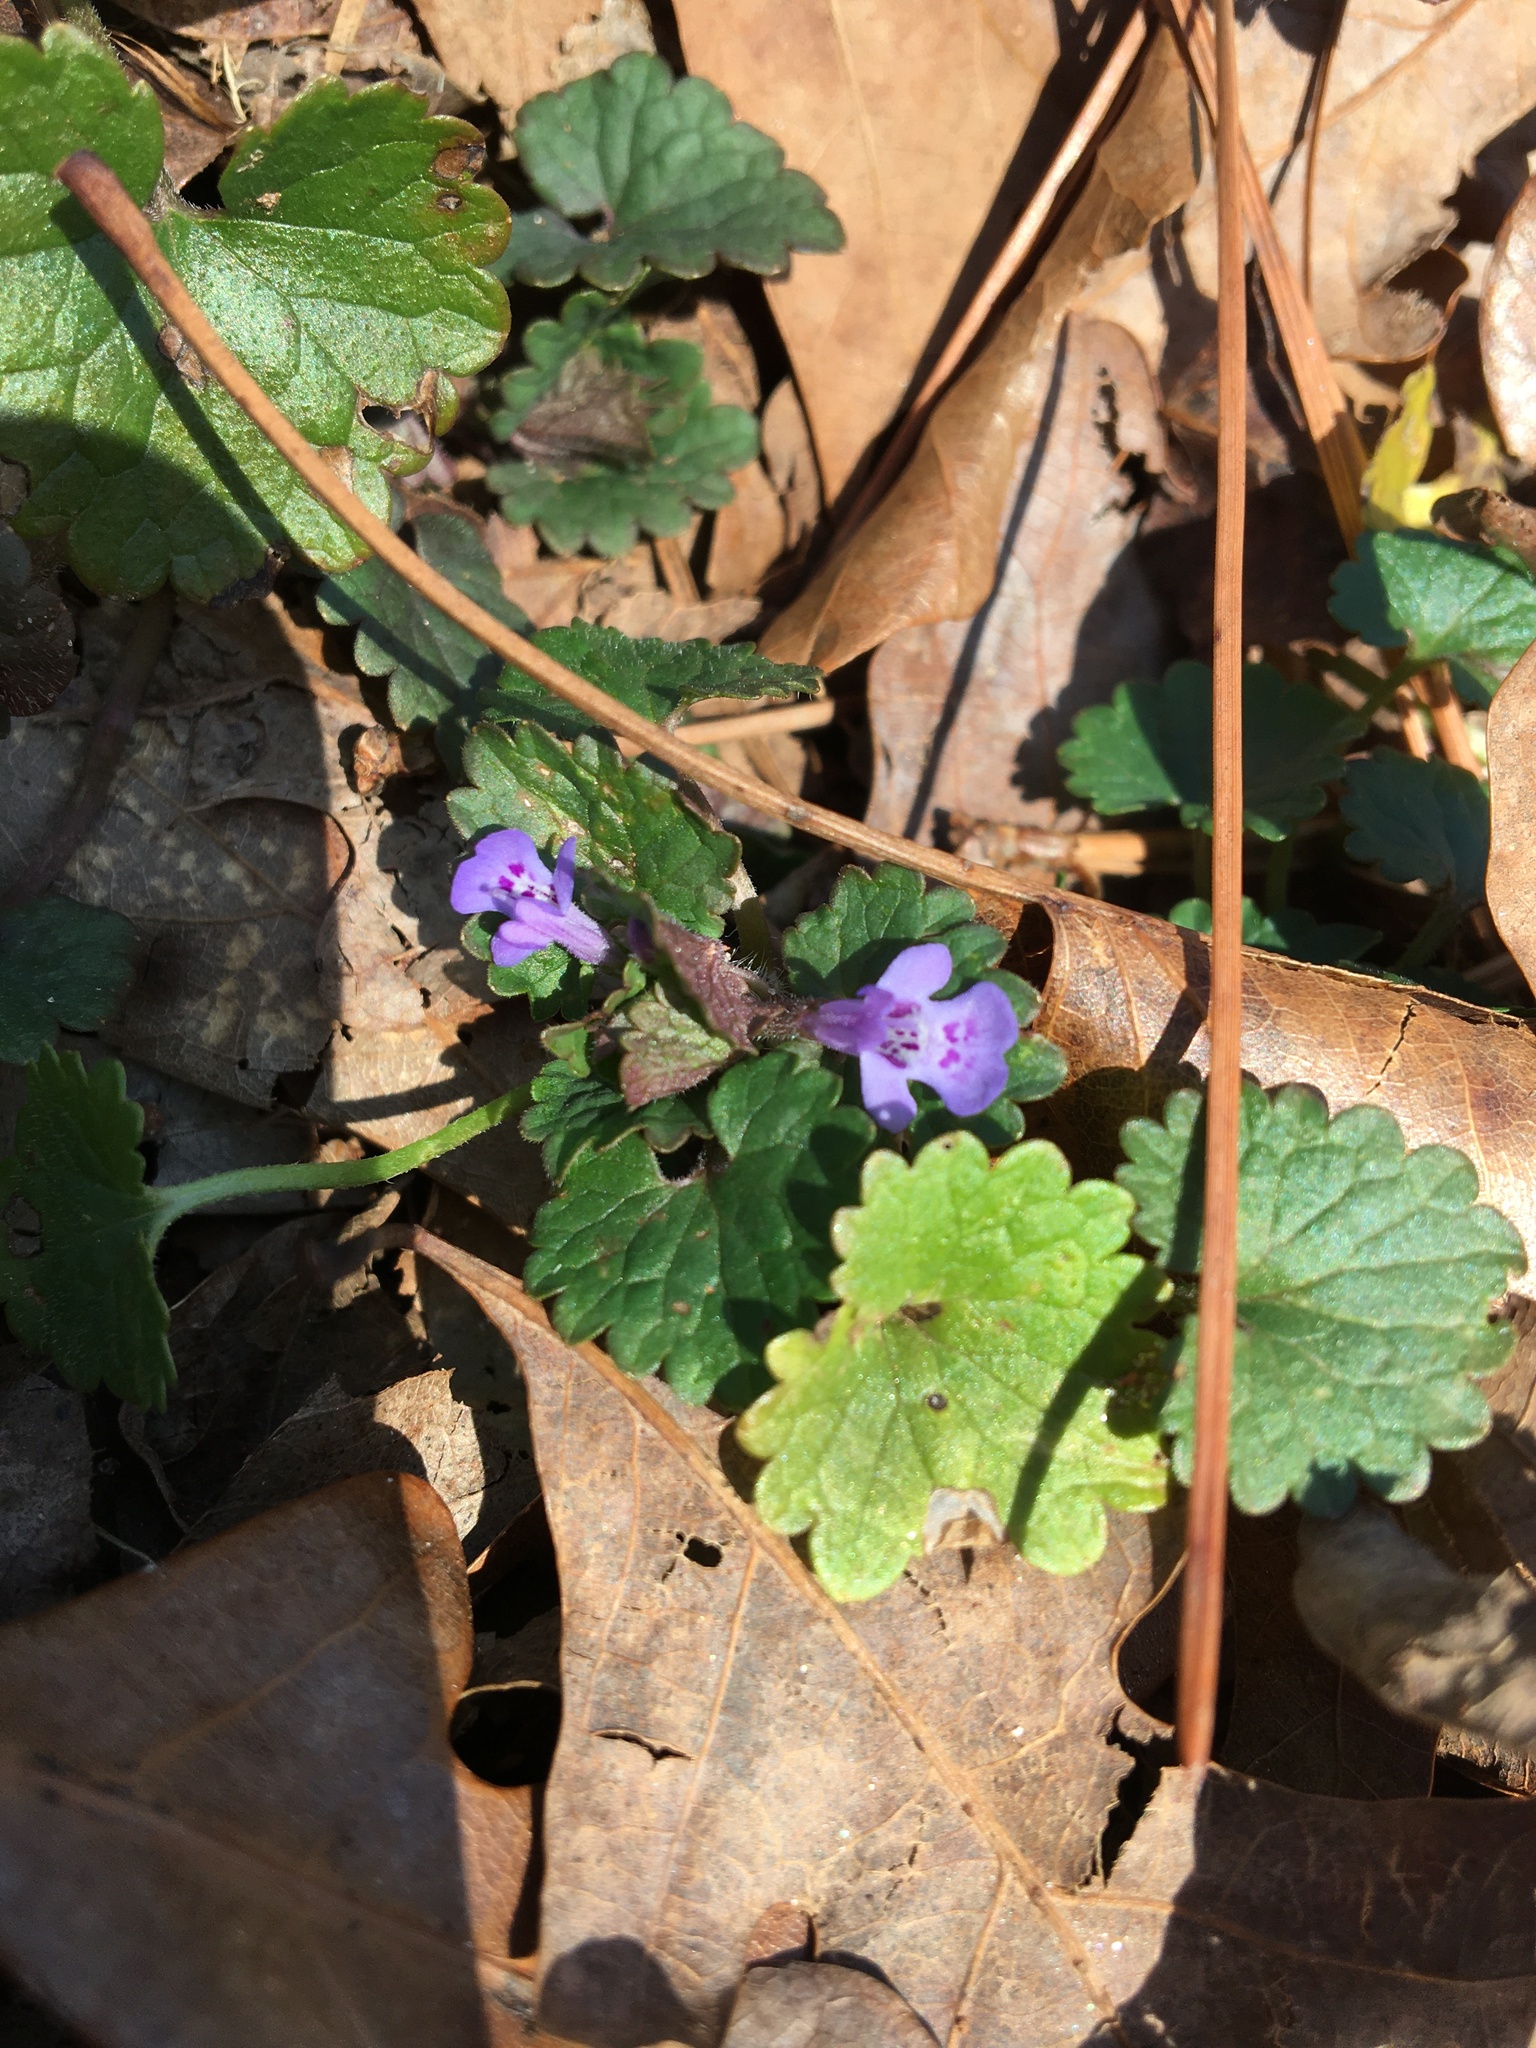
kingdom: Plantae
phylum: Tracheophyta
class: Magnoliopsida
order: Lamiales
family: Lamiaceae
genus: Glechoma
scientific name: Glechoma hederacea
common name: Ground ivy
